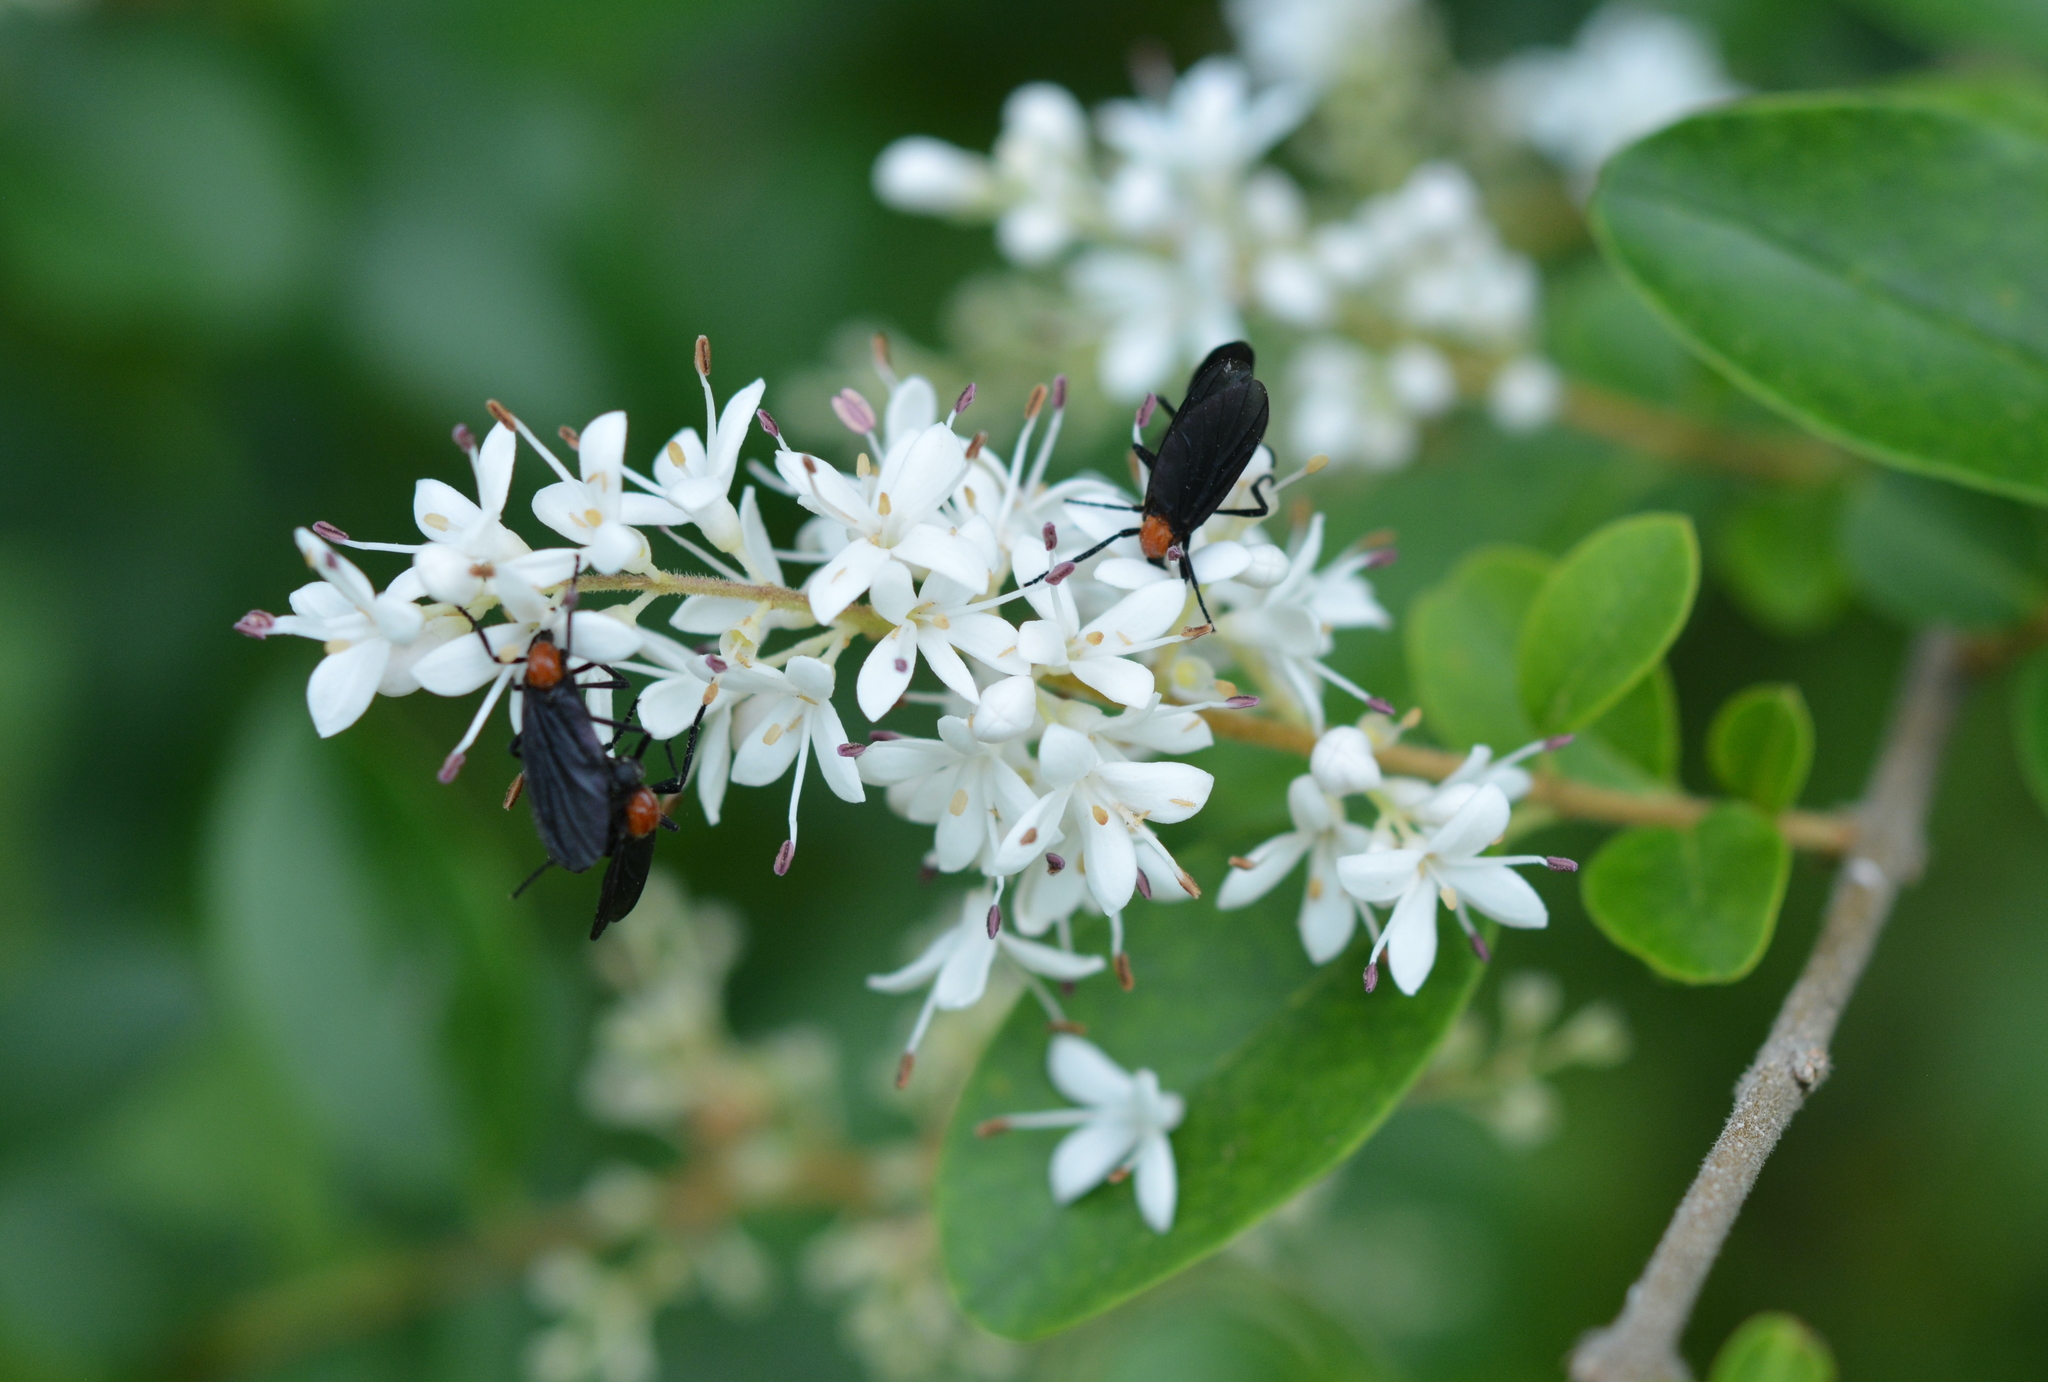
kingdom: Animalia
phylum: Arthropoda
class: Insecta
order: Diptera
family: Bibionidae
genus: Plecia
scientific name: Plecia nearctica
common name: March fly
